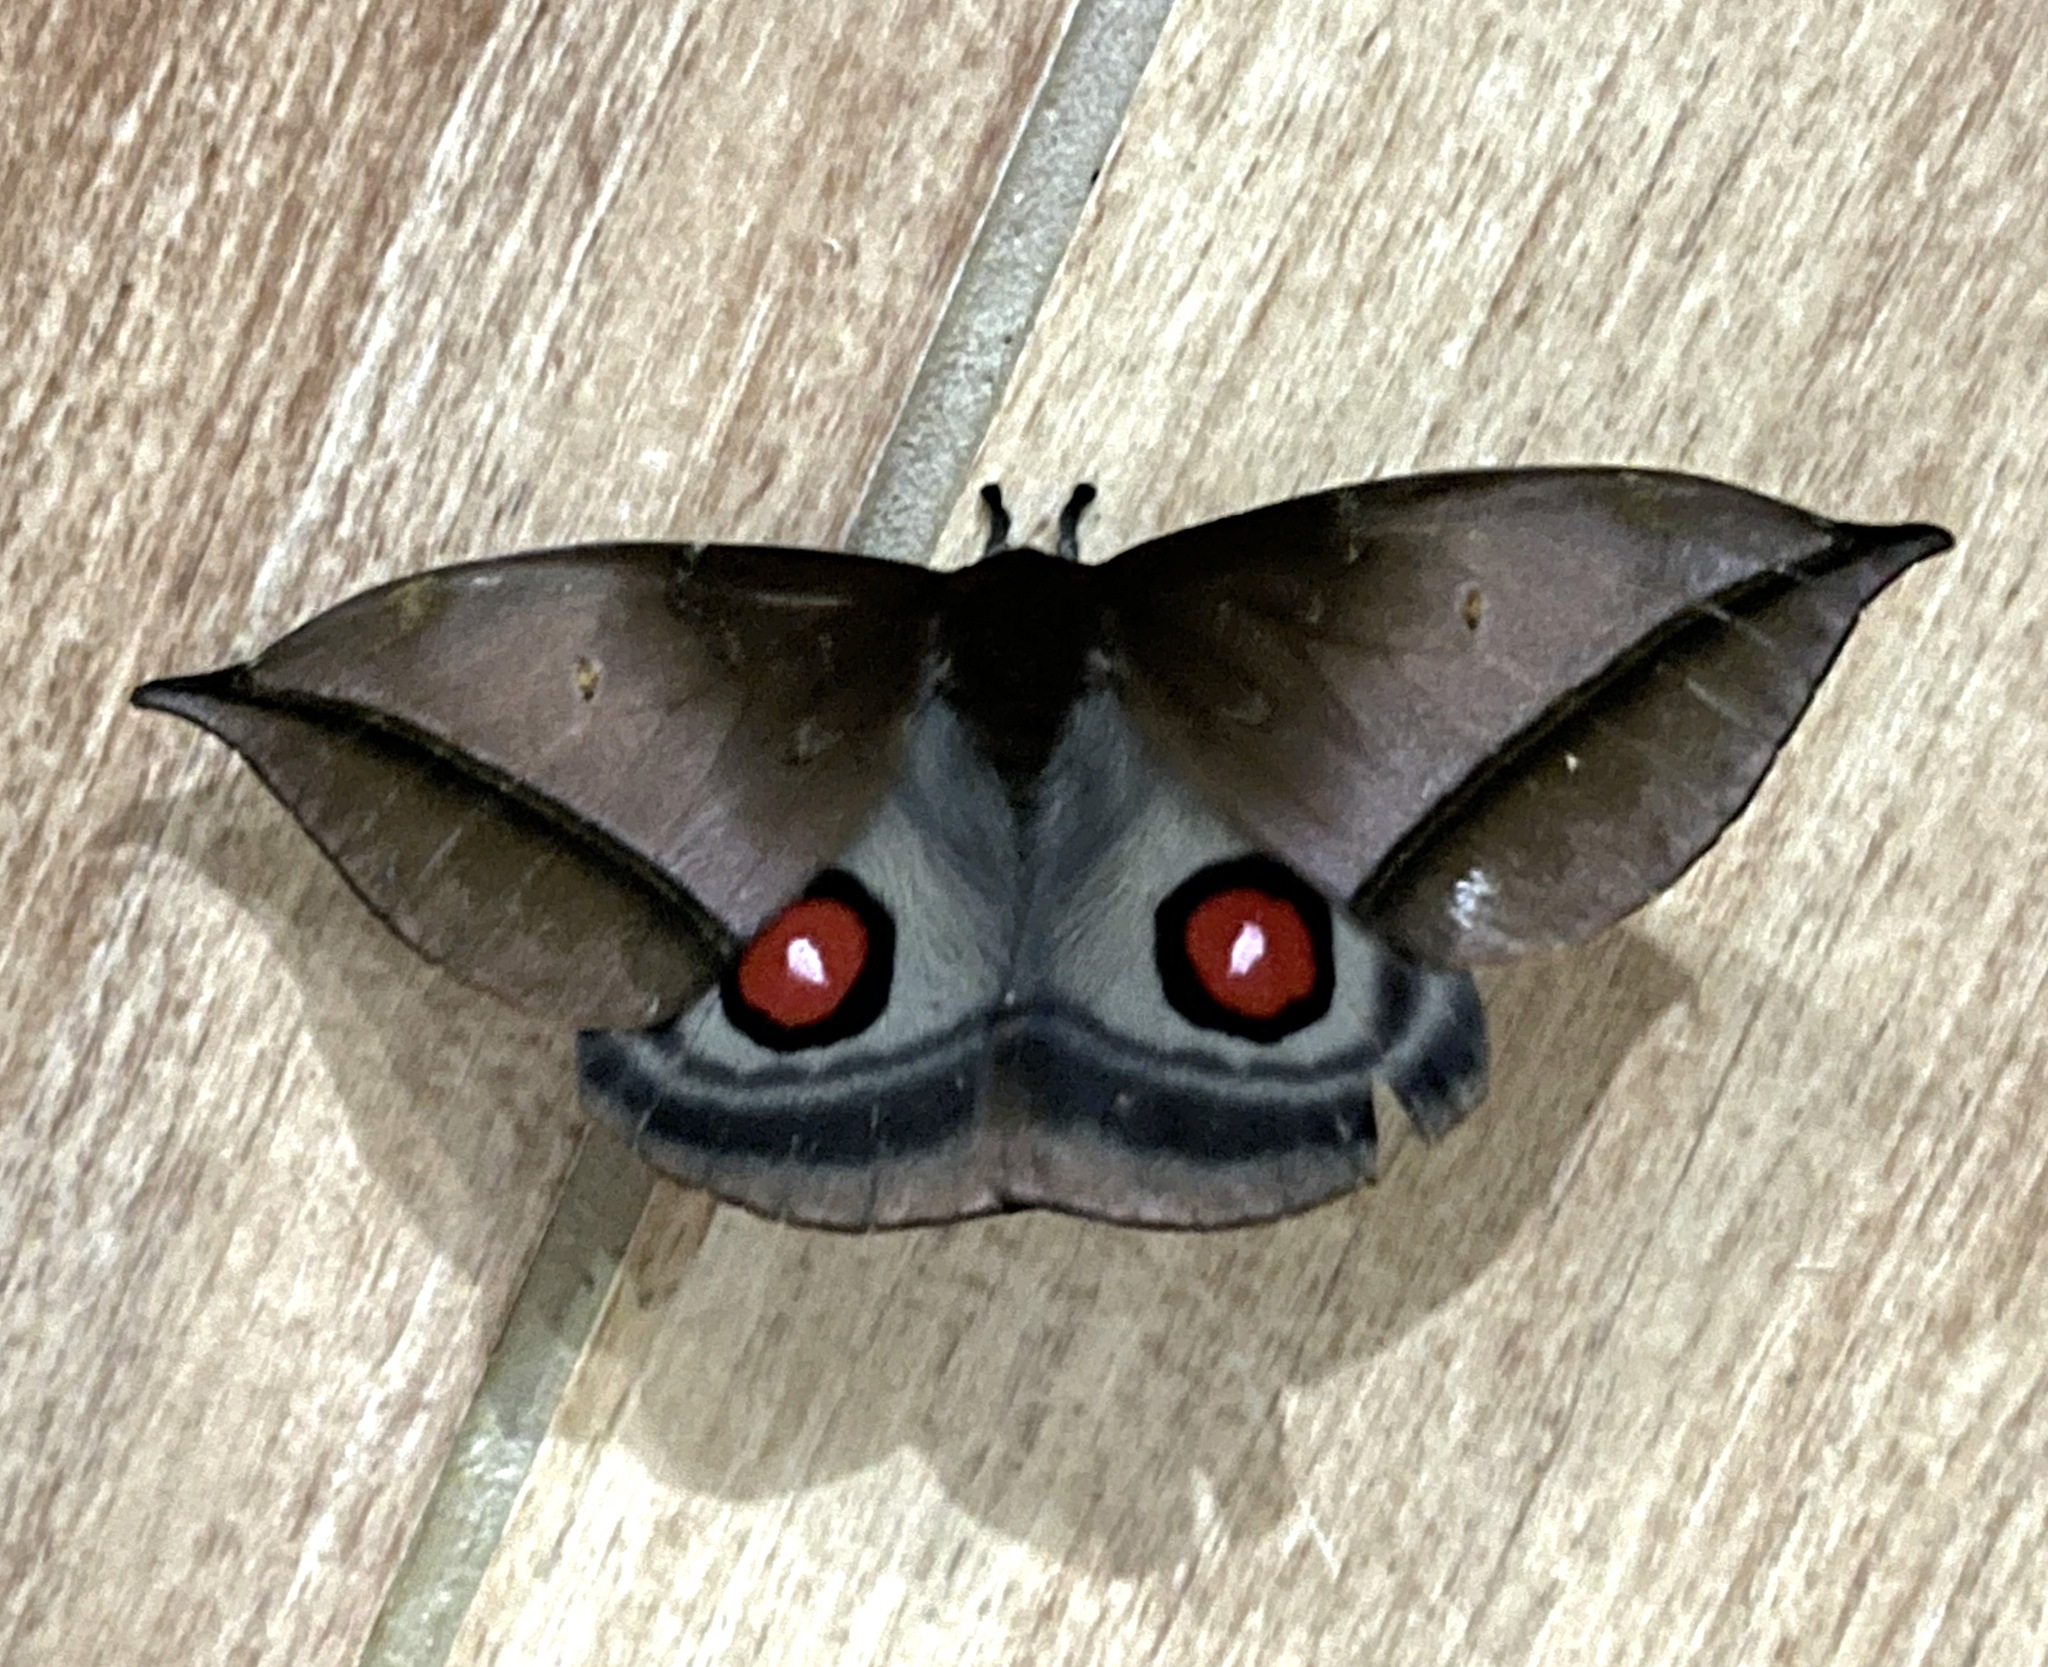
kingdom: Animalia
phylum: Arthropoda
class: Insecta
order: Lepidoptera
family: Saturniidae
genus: Gamelia
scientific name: Gamelia pyrrhomelas
